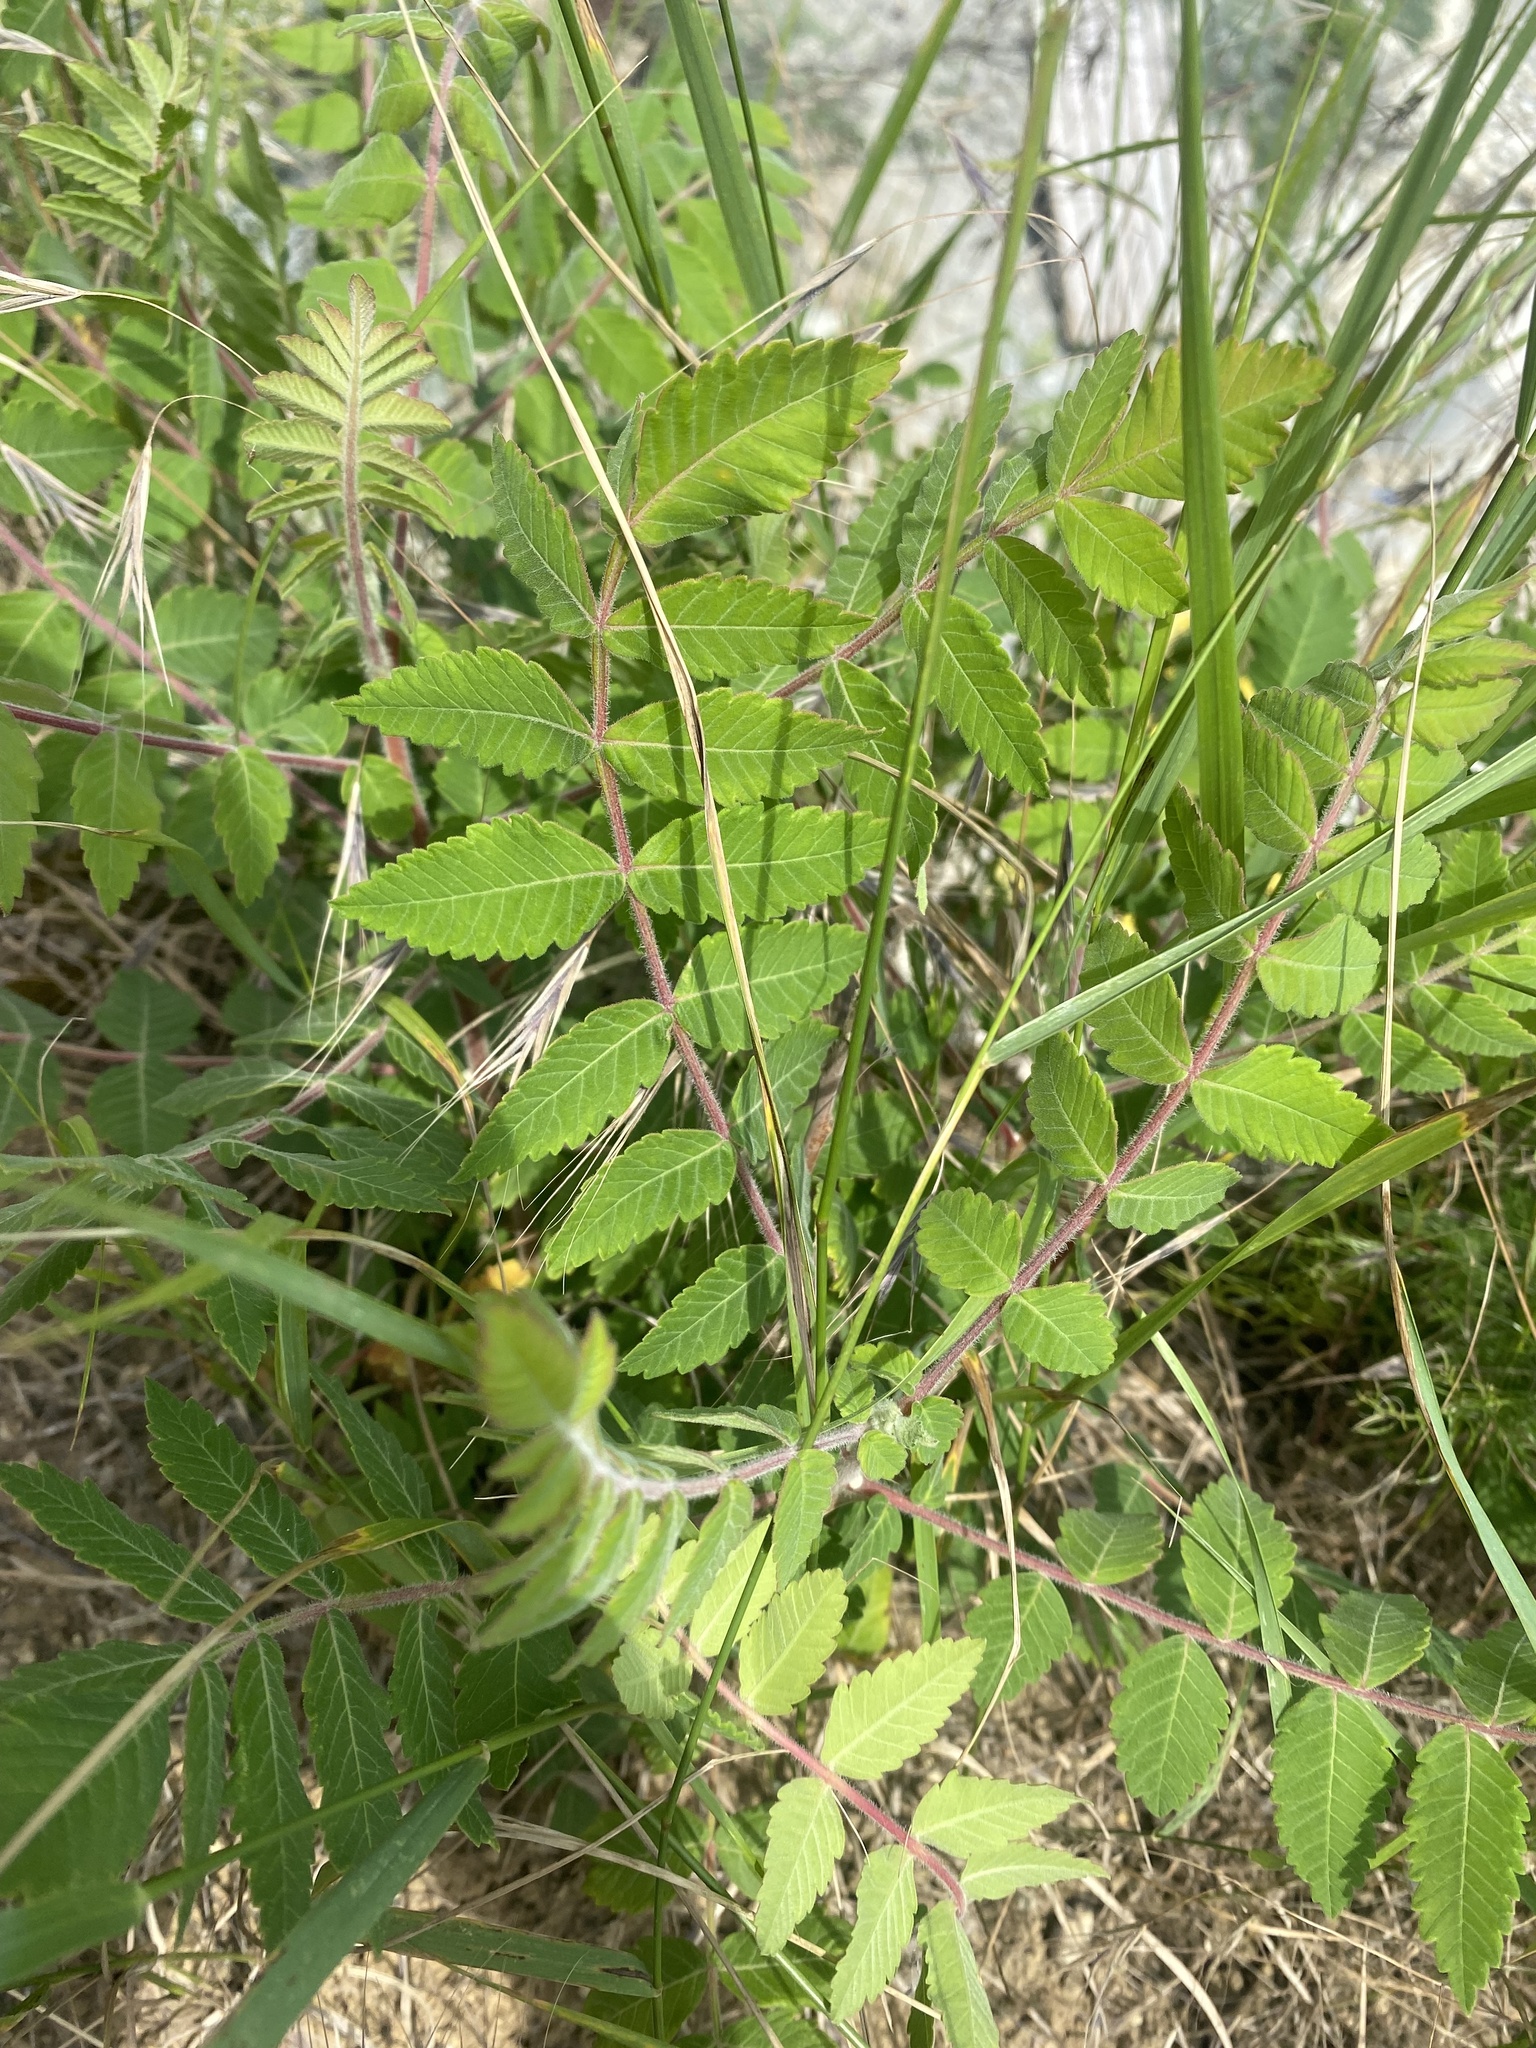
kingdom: Plantae
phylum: Tracheophyta
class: Magnoliopsida
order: Sapindales
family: Anacardiaceae
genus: Rhus
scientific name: Rhus coriaria
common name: Tanner's sumach
